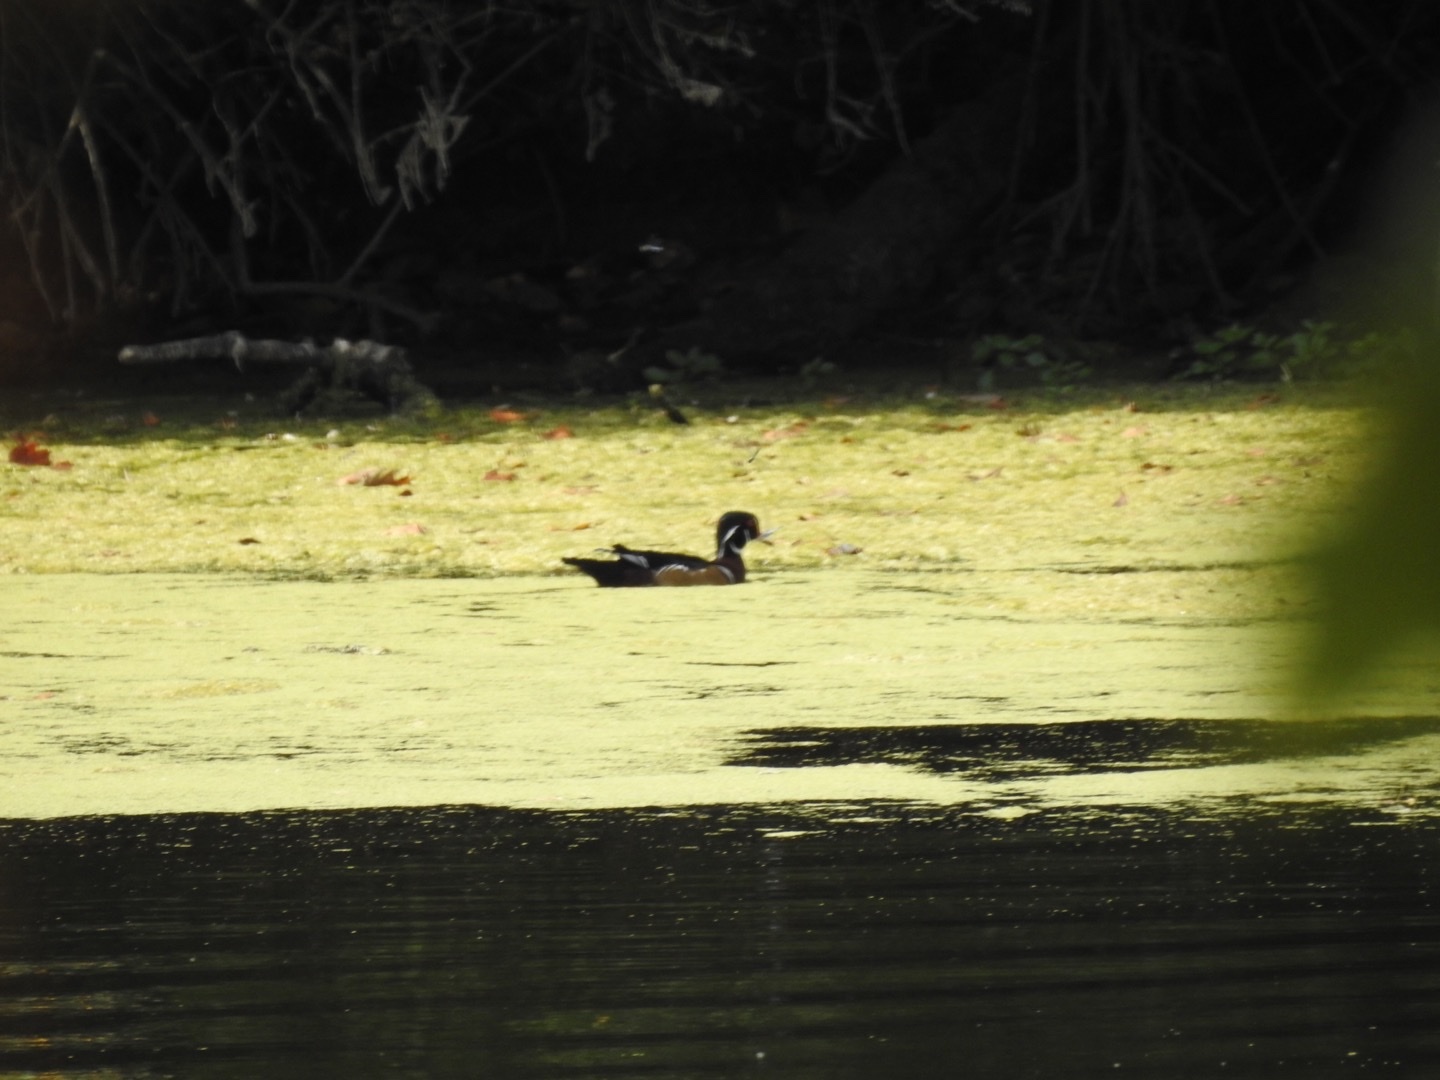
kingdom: Animalia
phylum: Chordata
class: Aves
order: Anseriformes
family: Anatidae
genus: Aix
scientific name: Aix sponsa
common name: Wood duck
